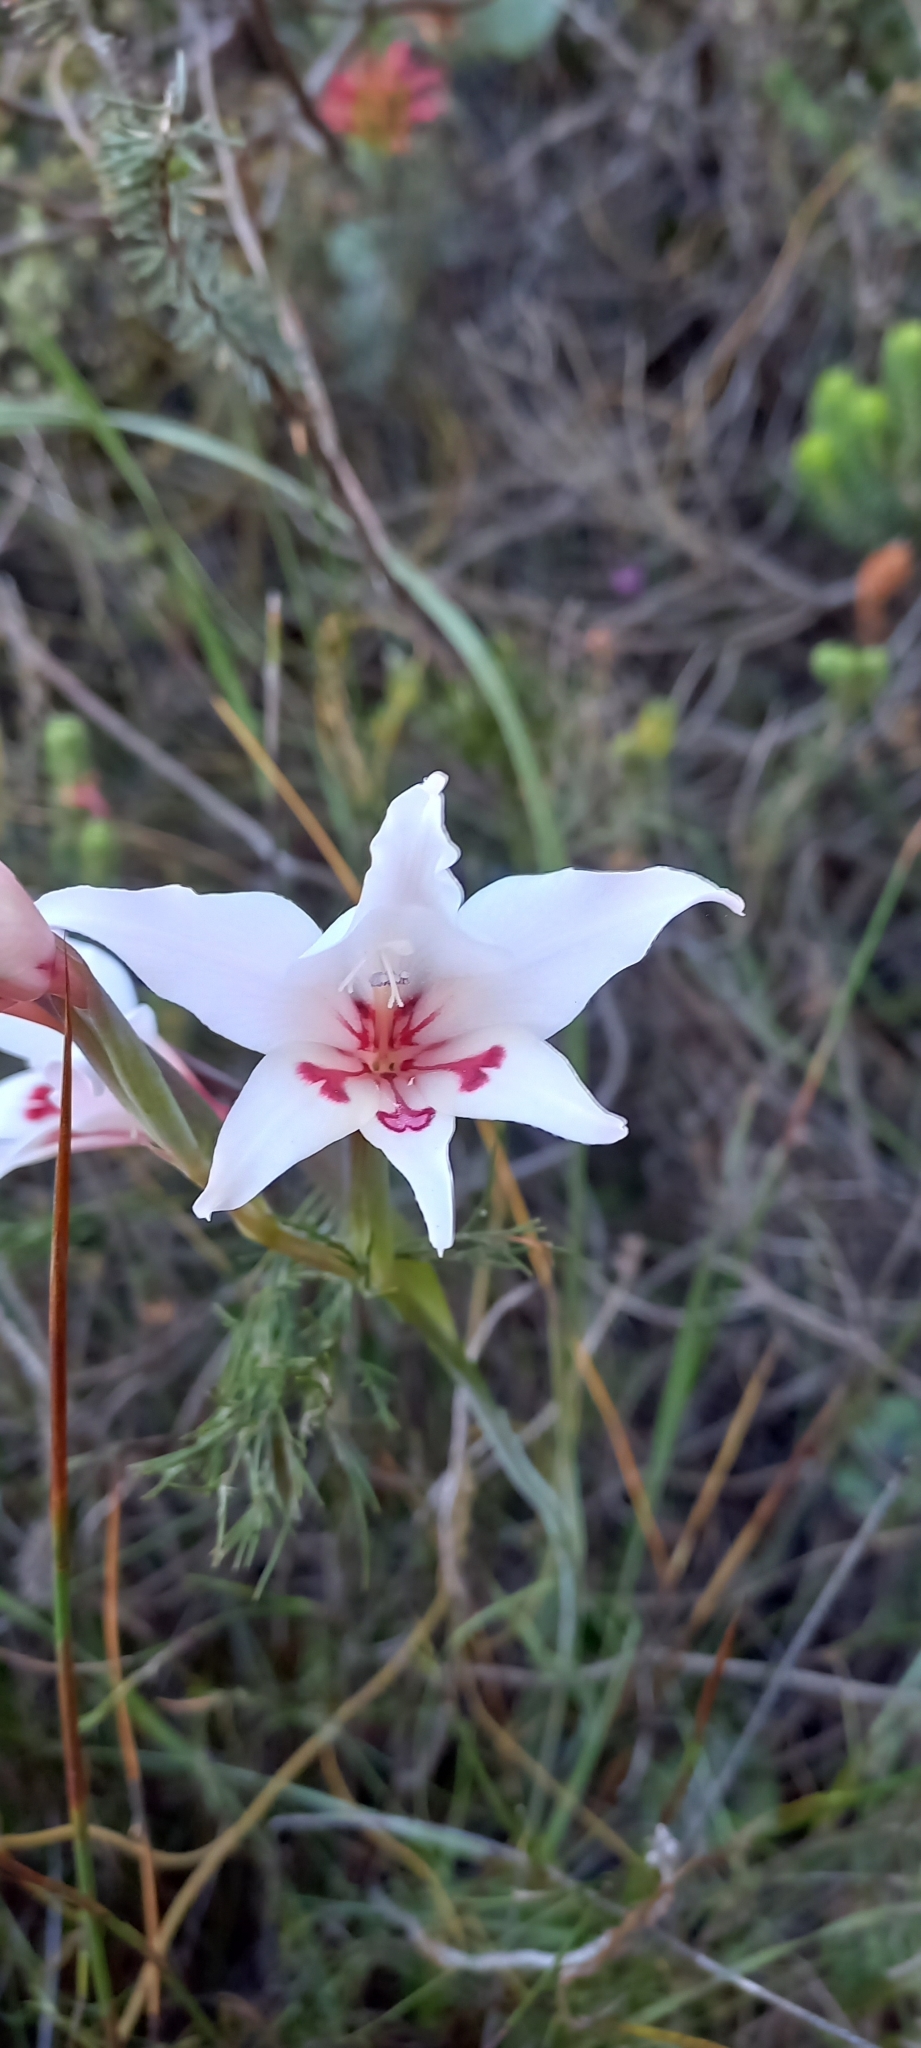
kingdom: Plantae
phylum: Tracheophyta
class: Liliopsida
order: Asparagales
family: Iridaceae
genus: Gladiolus
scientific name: Gladiolus carneus
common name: Painted-lady
